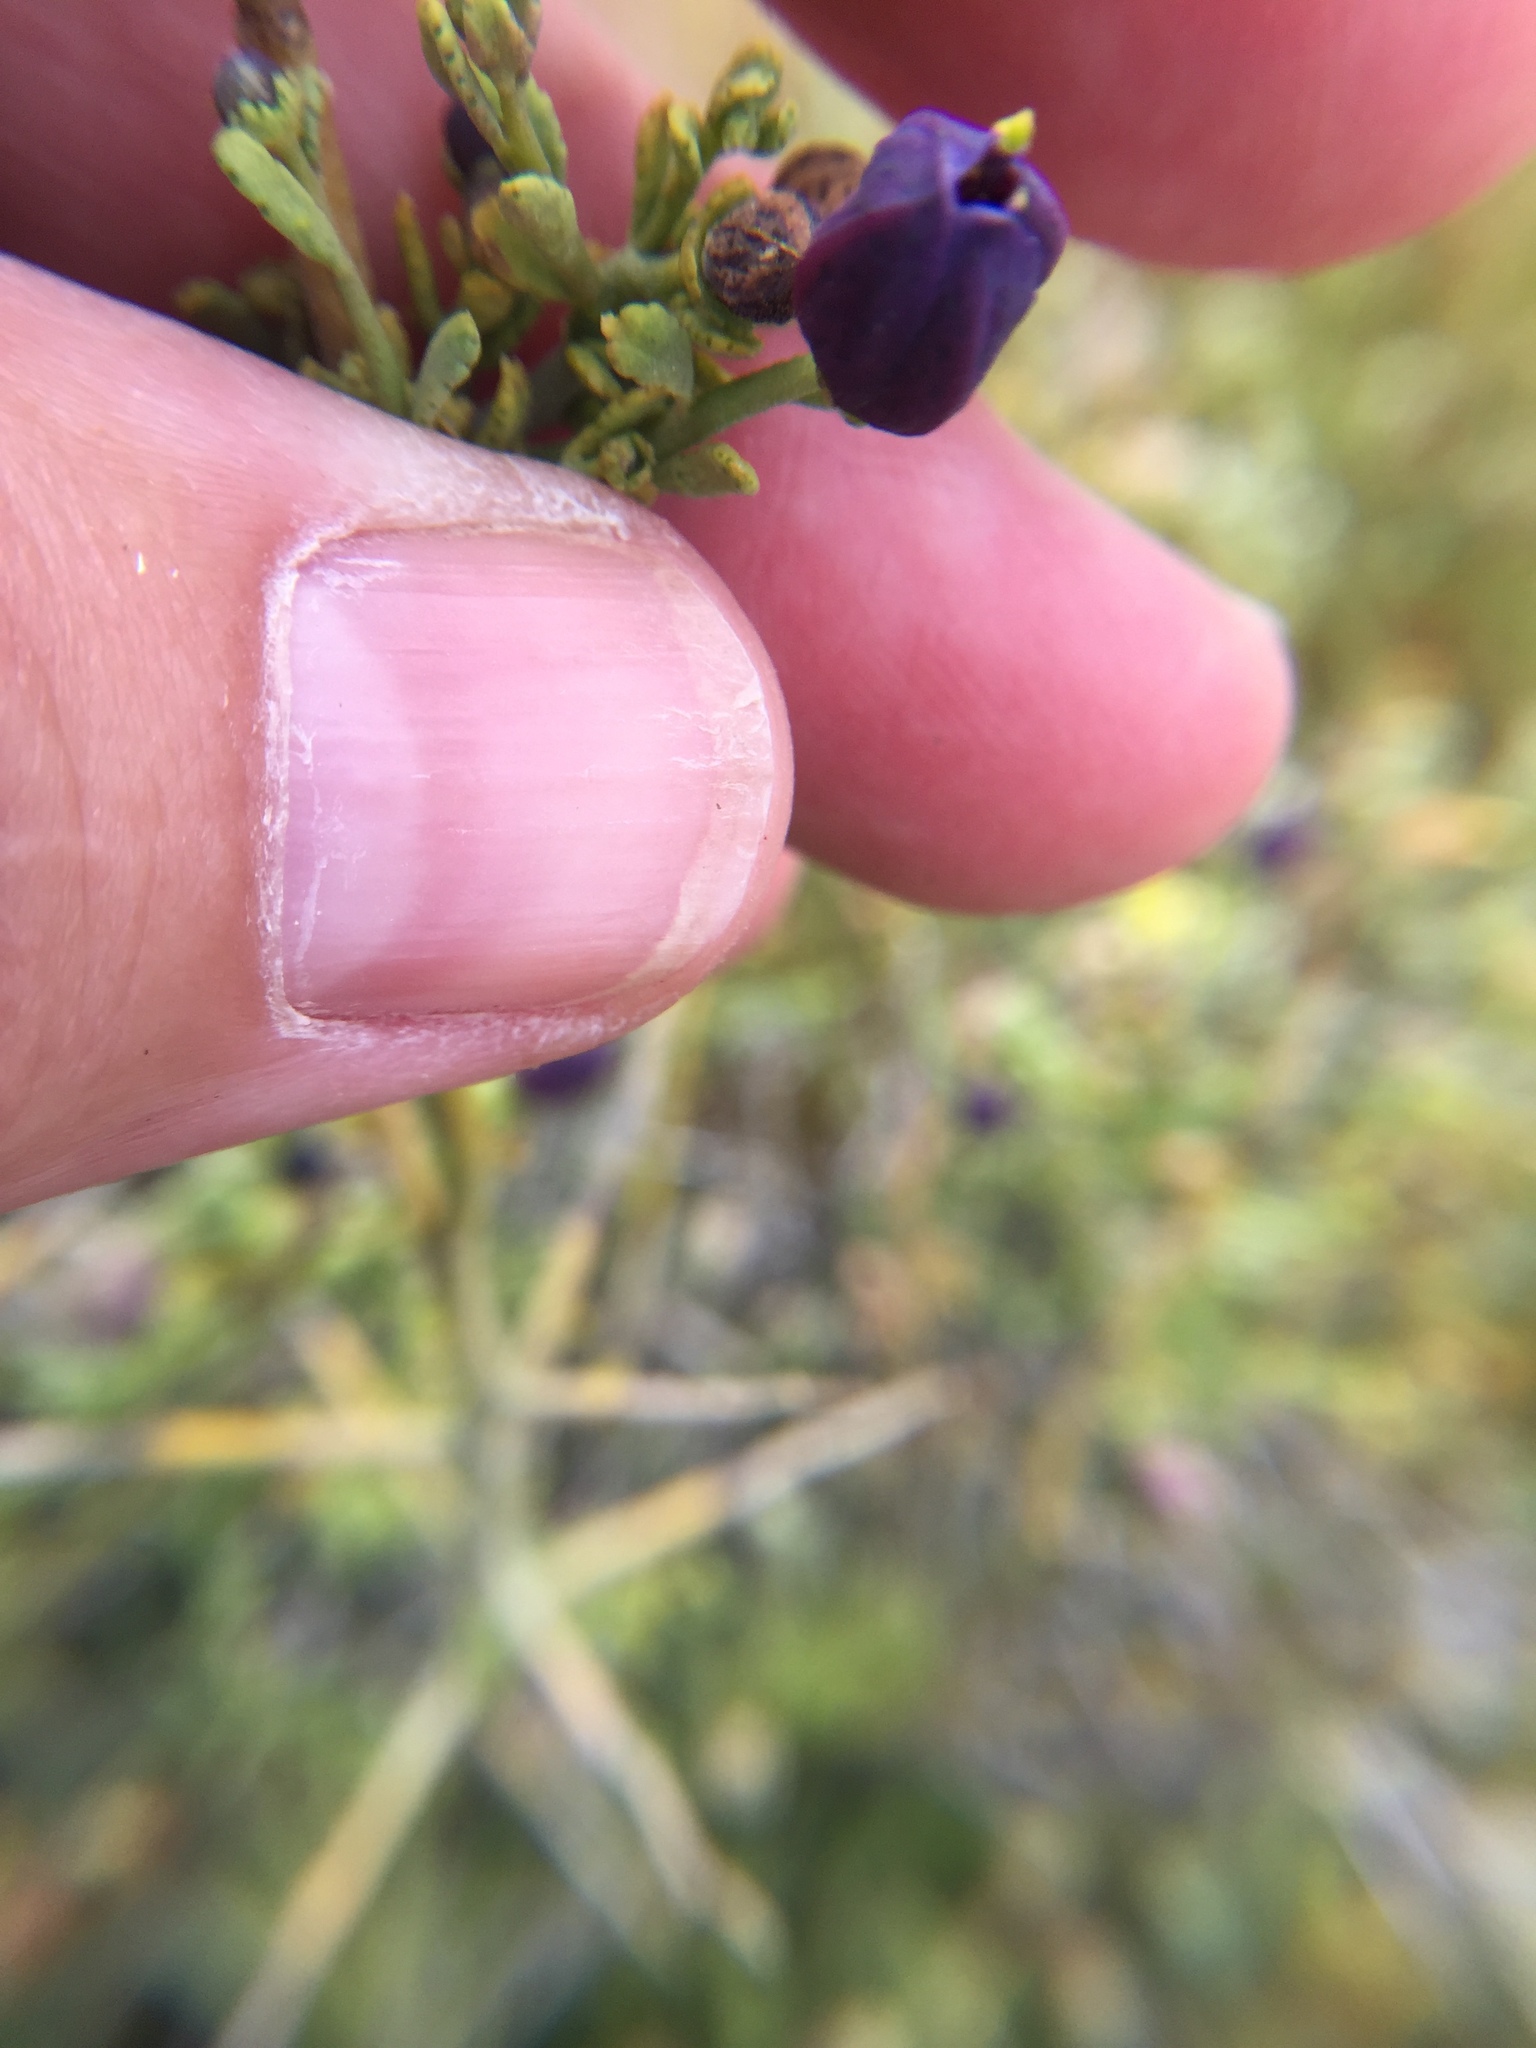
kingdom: Plantae
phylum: Tracheophyta
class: Magnoliopsida
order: Sapindales
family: Rutaceae
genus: Thamnosma
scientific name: Thamnosma montana
